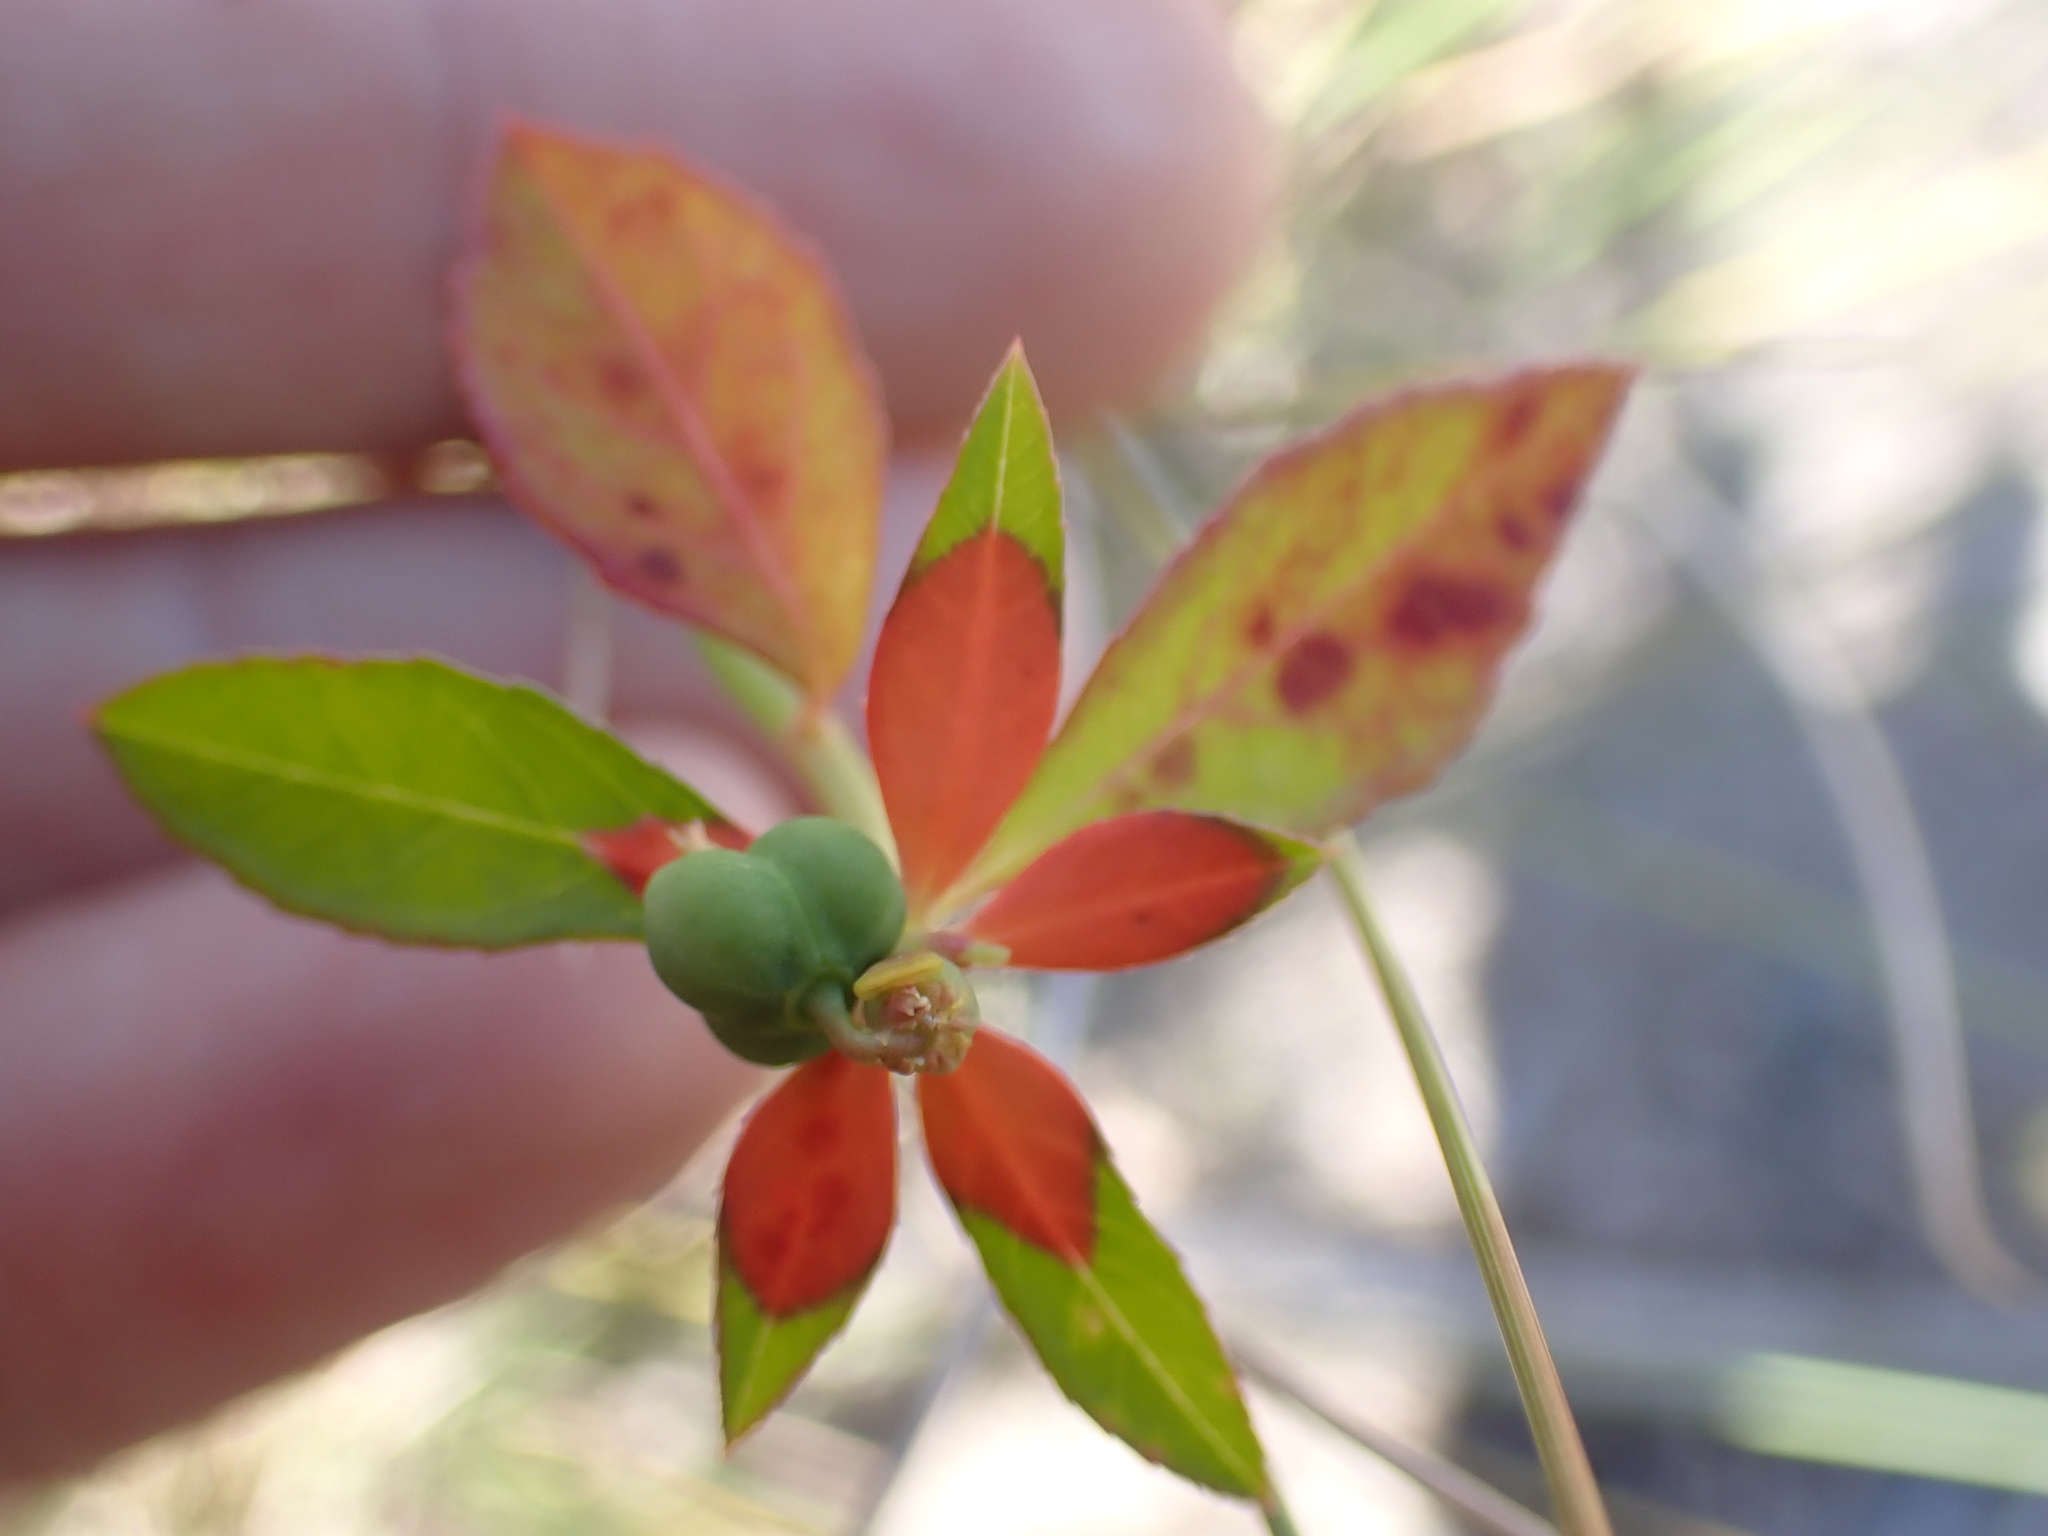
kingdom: Plantae
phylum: Tracheophyta
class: Magnoliopsida
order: Malpighiales
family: Euphorbiaceae
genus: Euphorbia
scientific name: Euphorbia heterophylla
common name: Mexican fireplant
